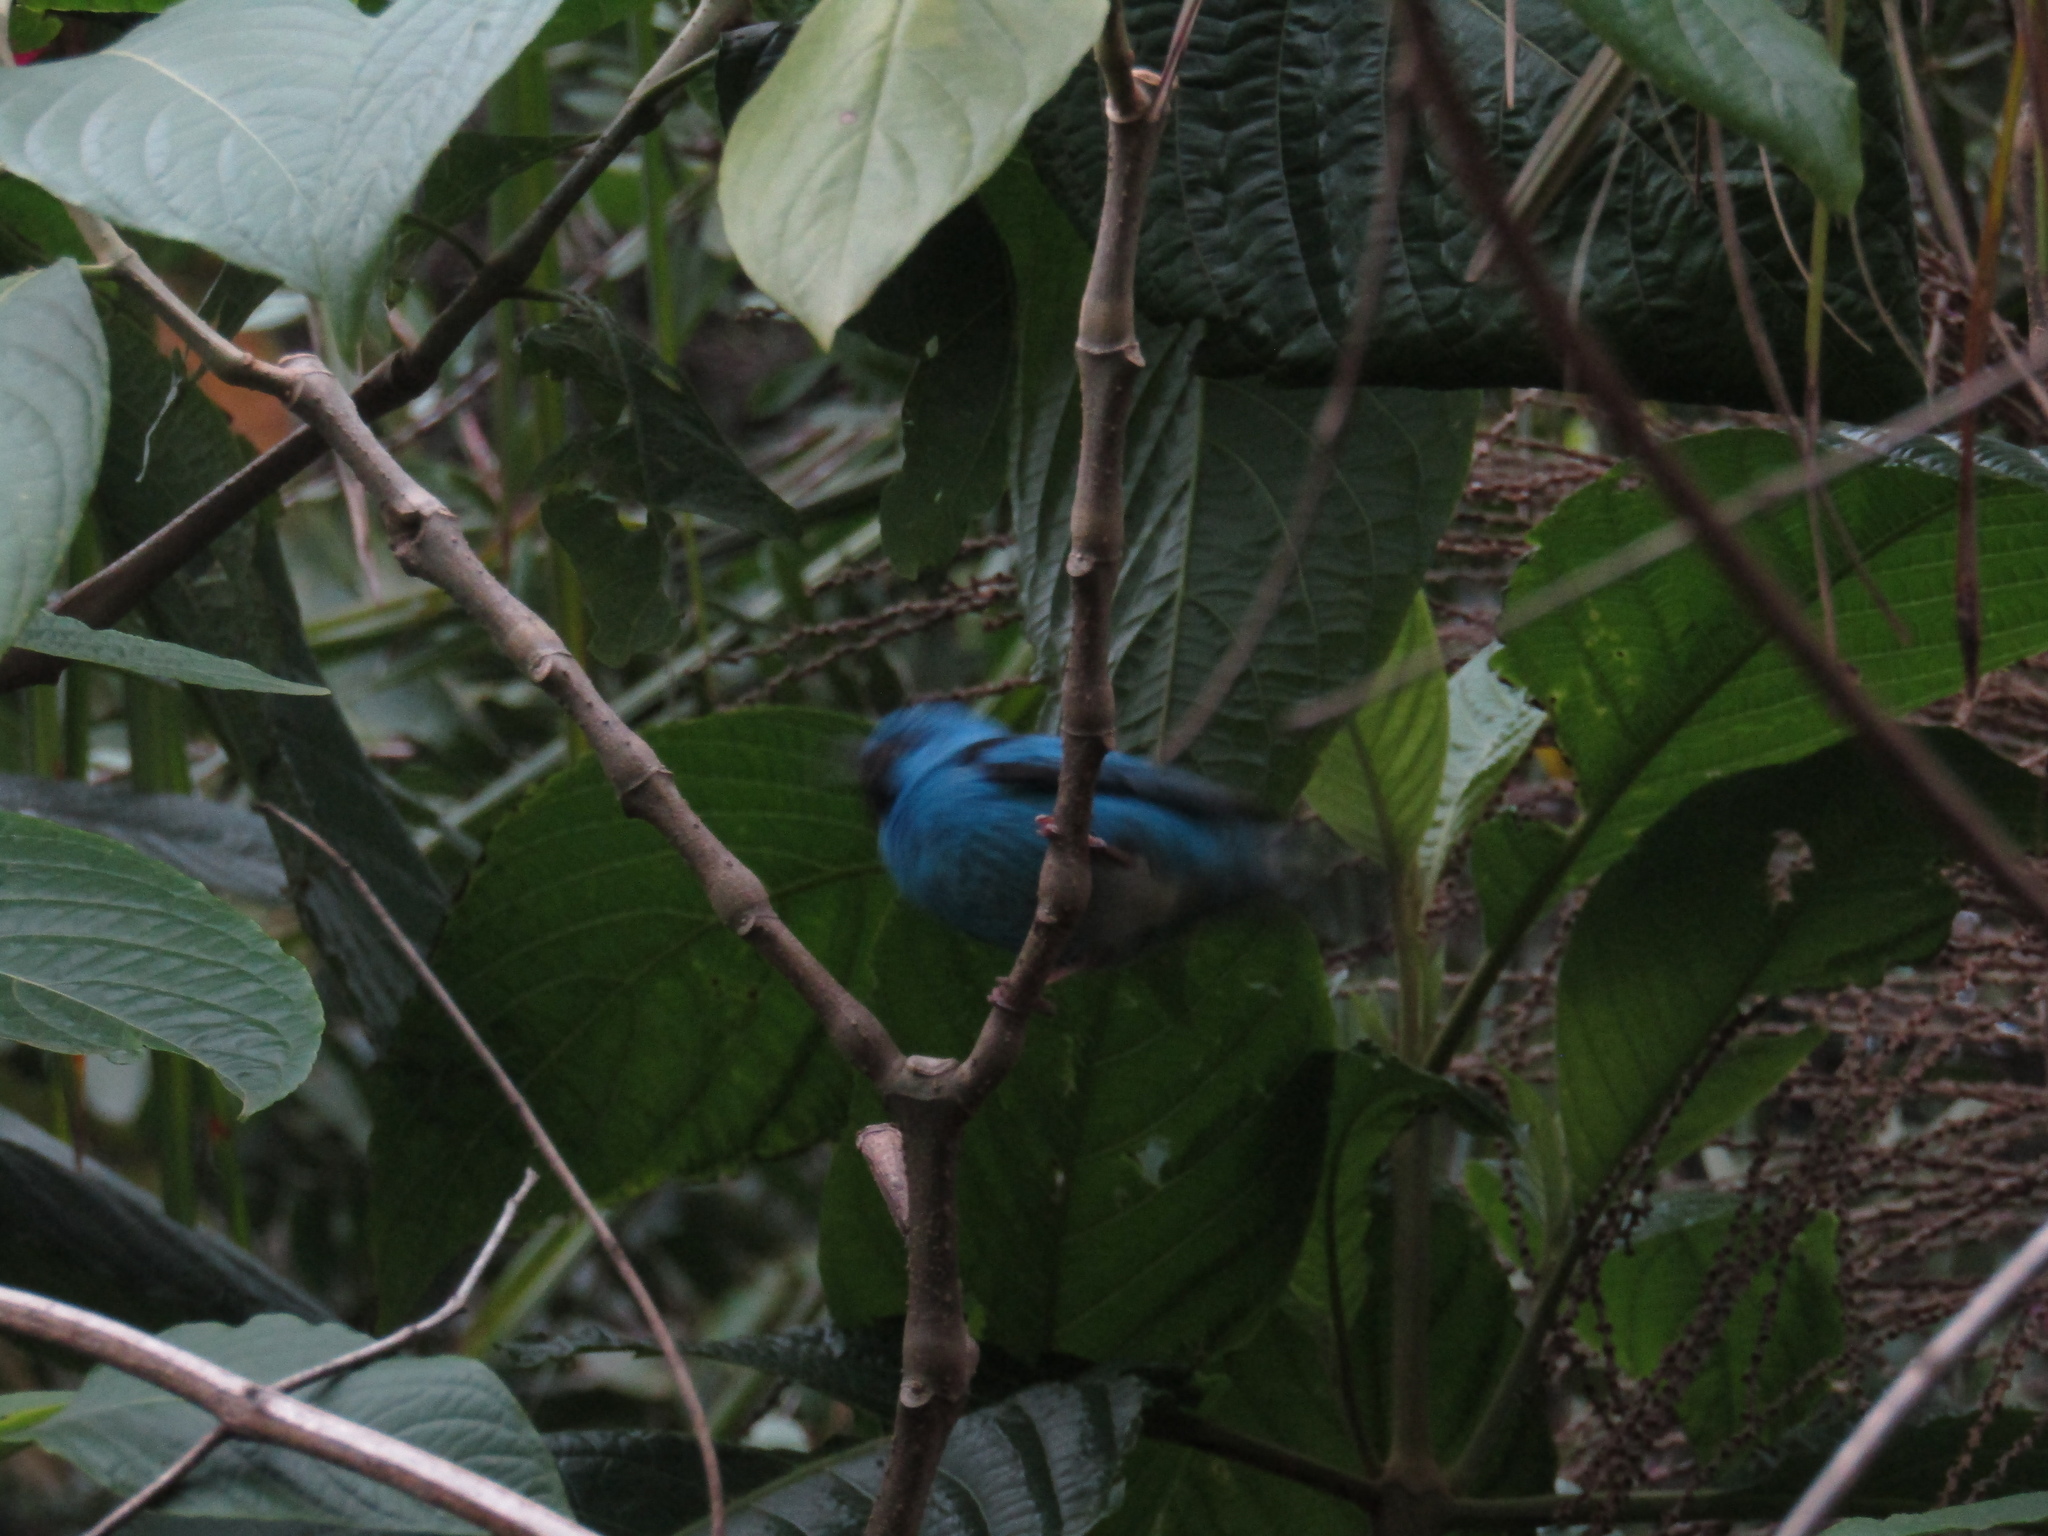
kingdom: Animalia
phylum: Chordata
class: Aves
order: Passeriformes
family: Thraupidae
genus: Dacnis
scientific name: Dacnis cayana
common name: Blue dacnis
